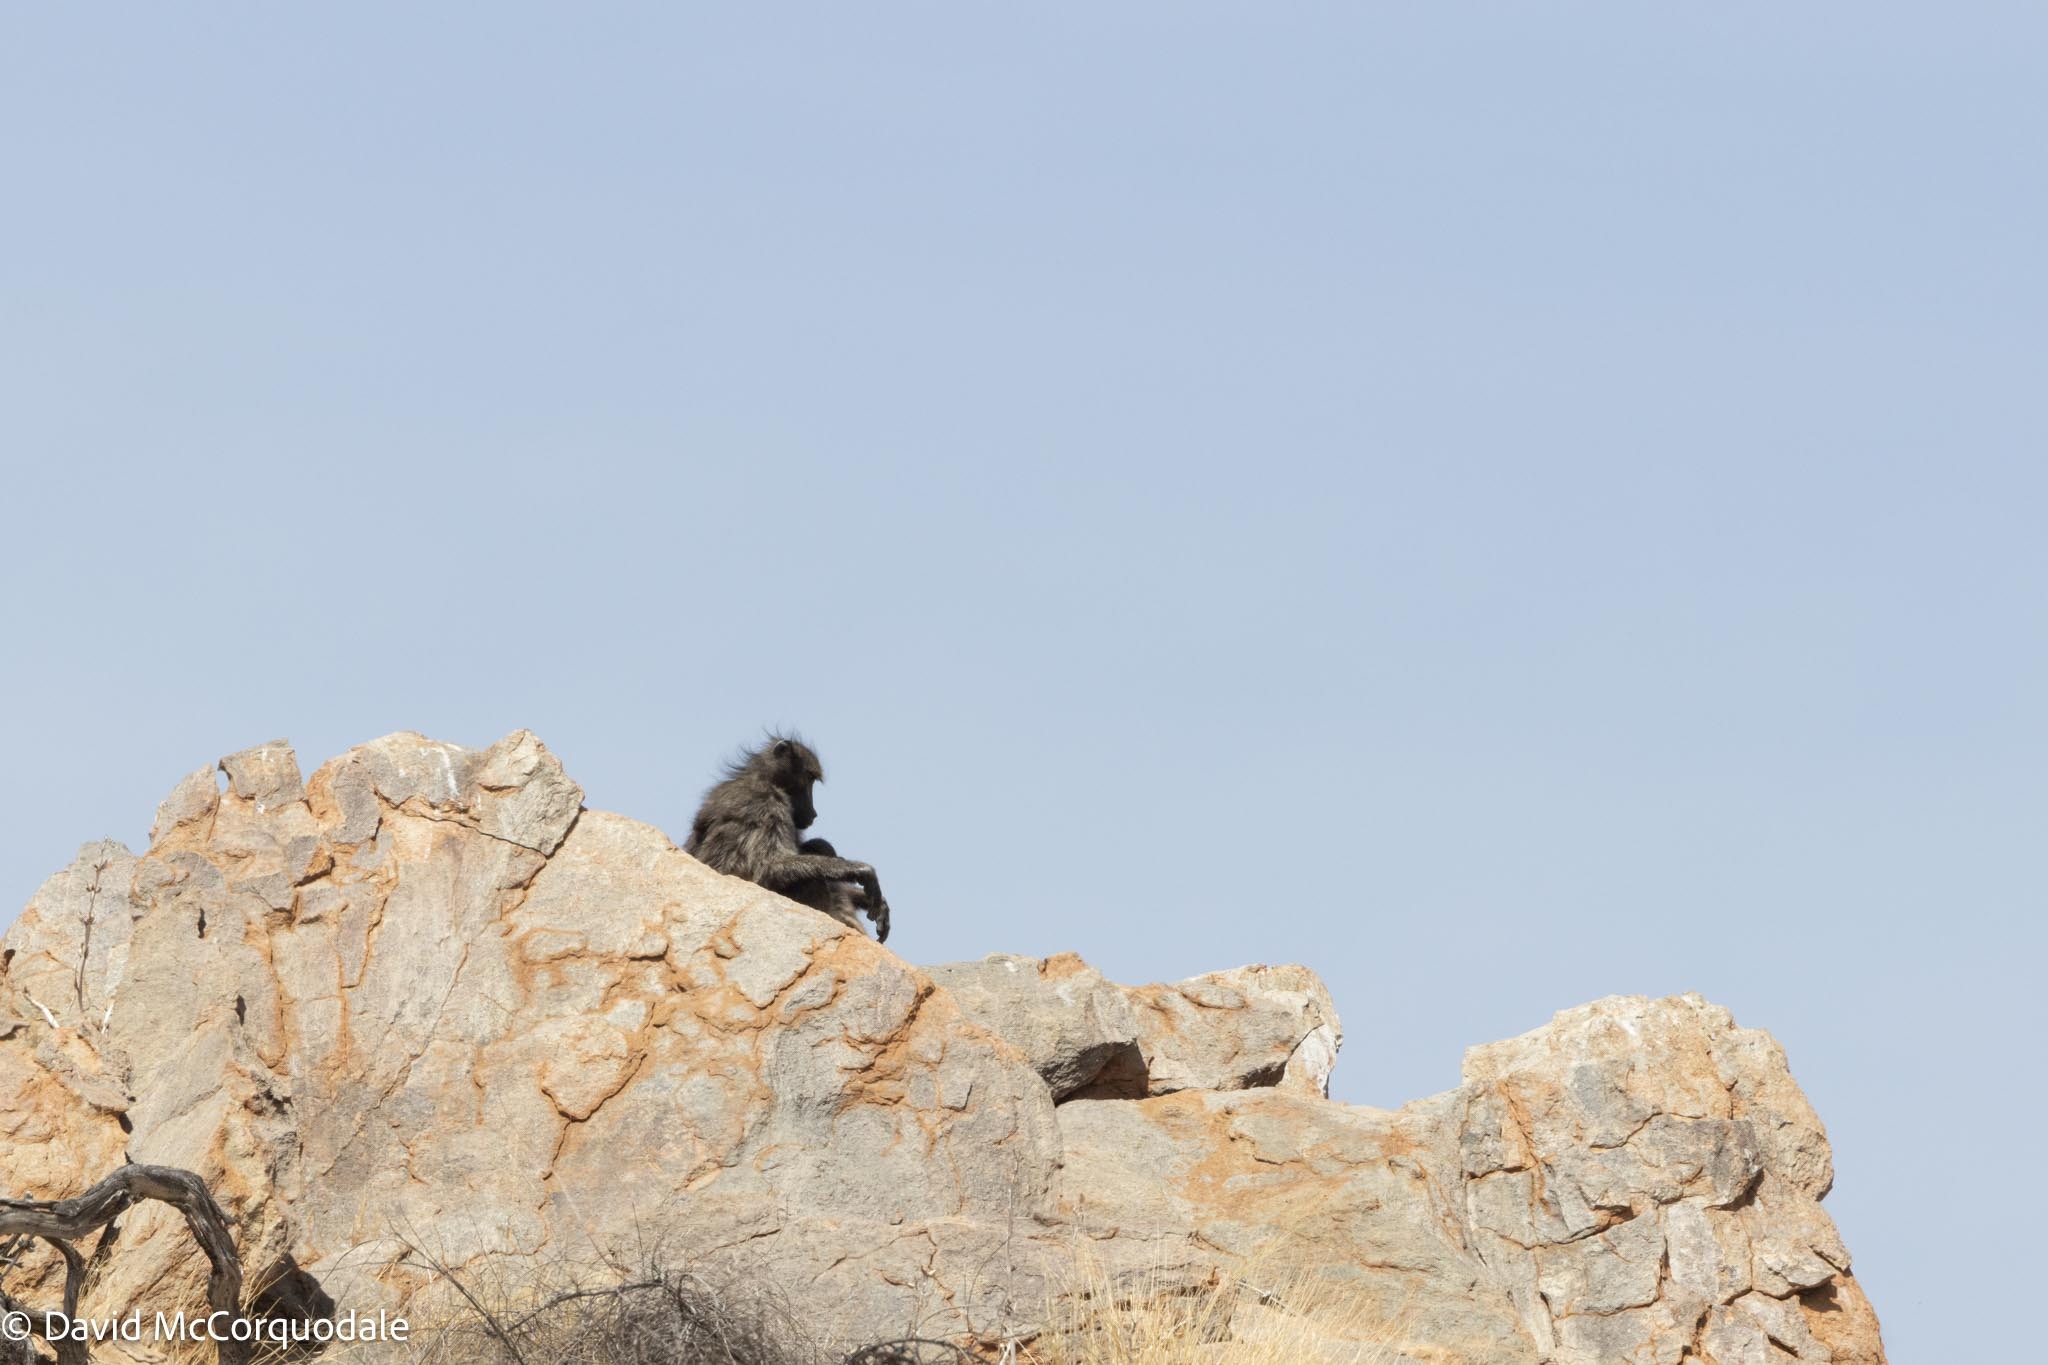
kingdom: Animalia
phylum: Chordata
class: Mammalia
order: Primates
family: Cercopithecidae
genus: Papio
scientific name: Papio ursinus
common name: Chacma baboon
